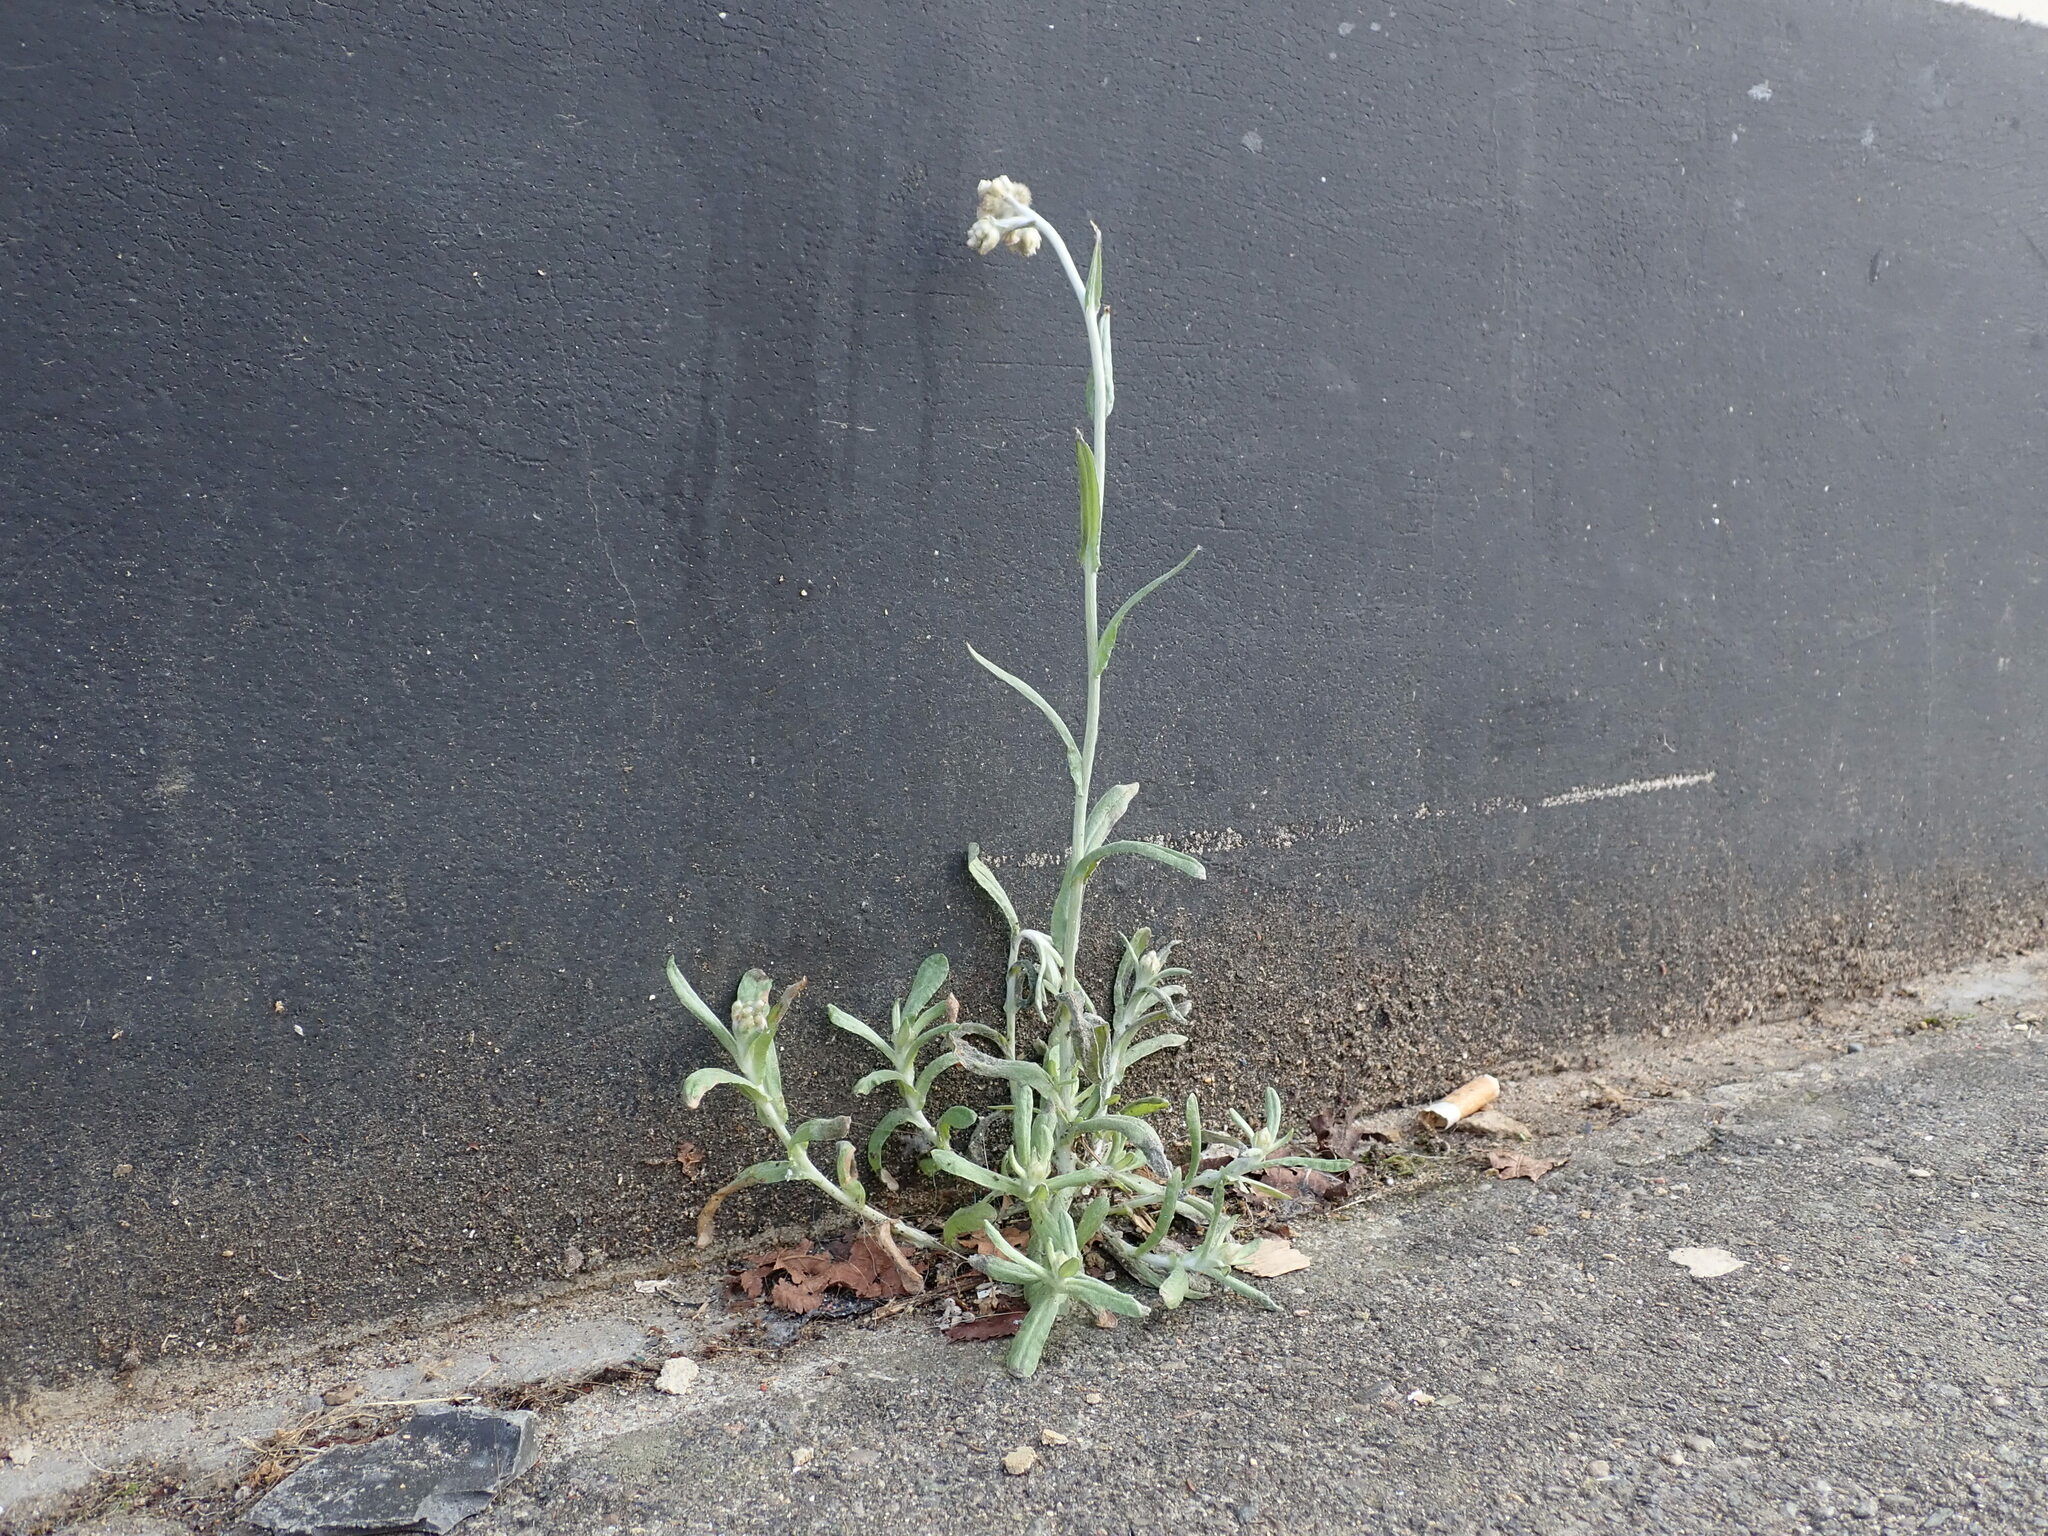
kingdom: Plantae
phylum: Tracheophyta
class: Magnoliopsida
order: Asterales
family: Asteraceae
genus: Helichrysum
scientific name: Helichrysum luteoalbum
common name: Daisy
